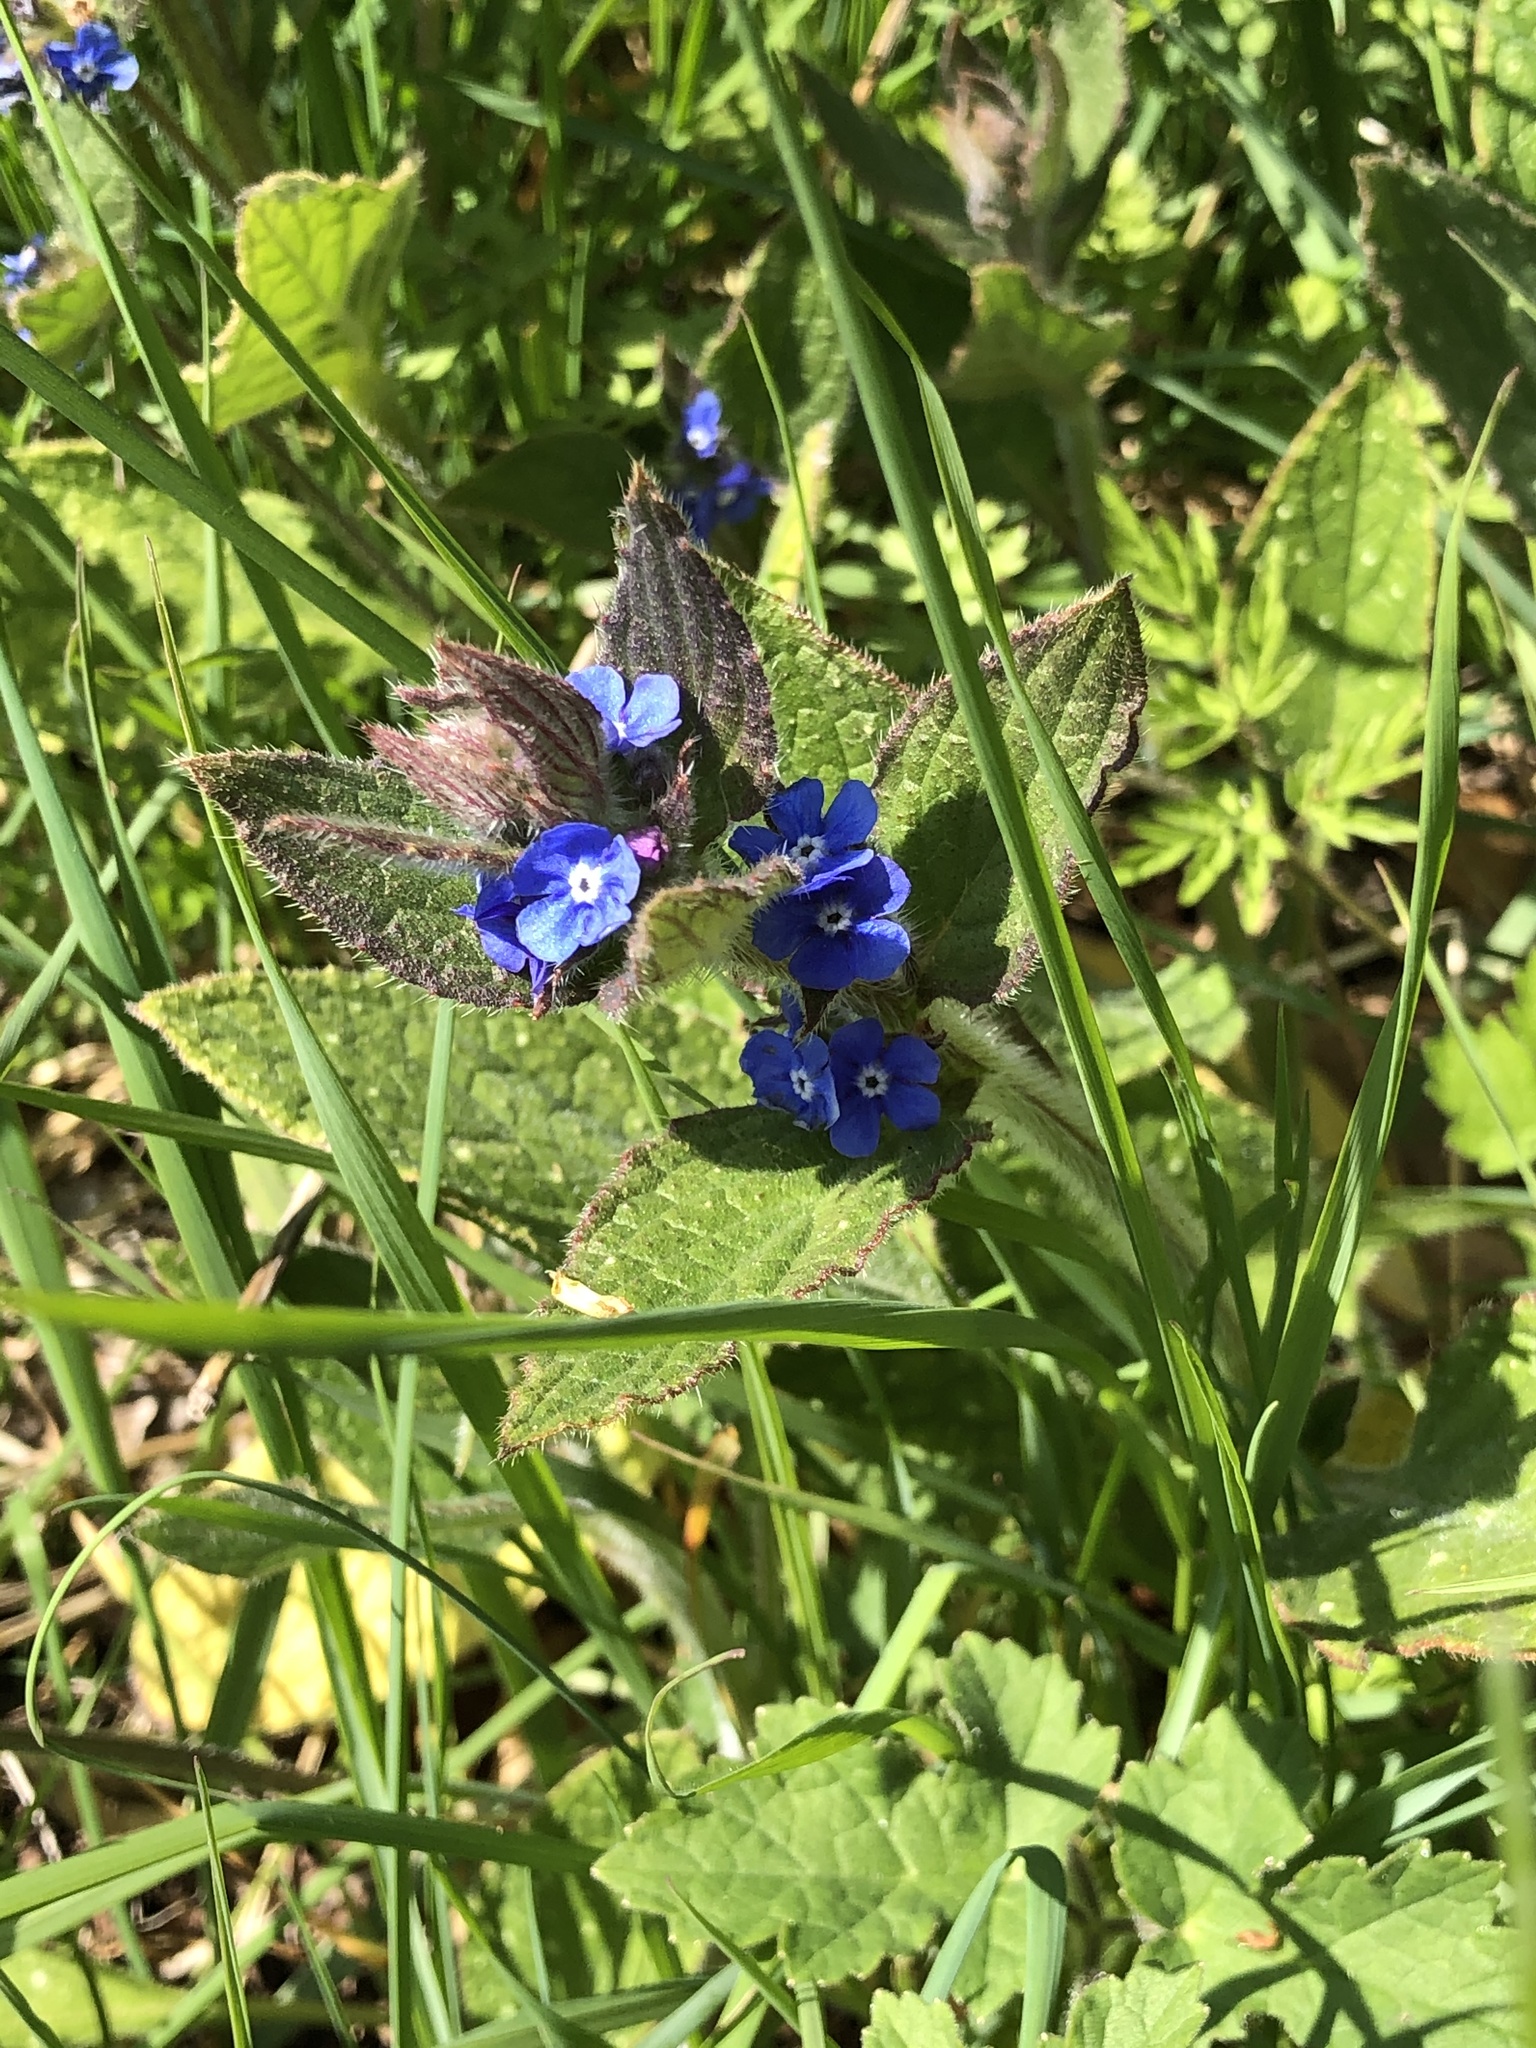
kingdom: Plantae
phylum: Tracheophyta
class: Magnoliopsida
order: Boraginales
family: Boraginaceae
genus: Pentaglottis
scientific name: Pentaglottis sempervirens
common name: Green alkanet
